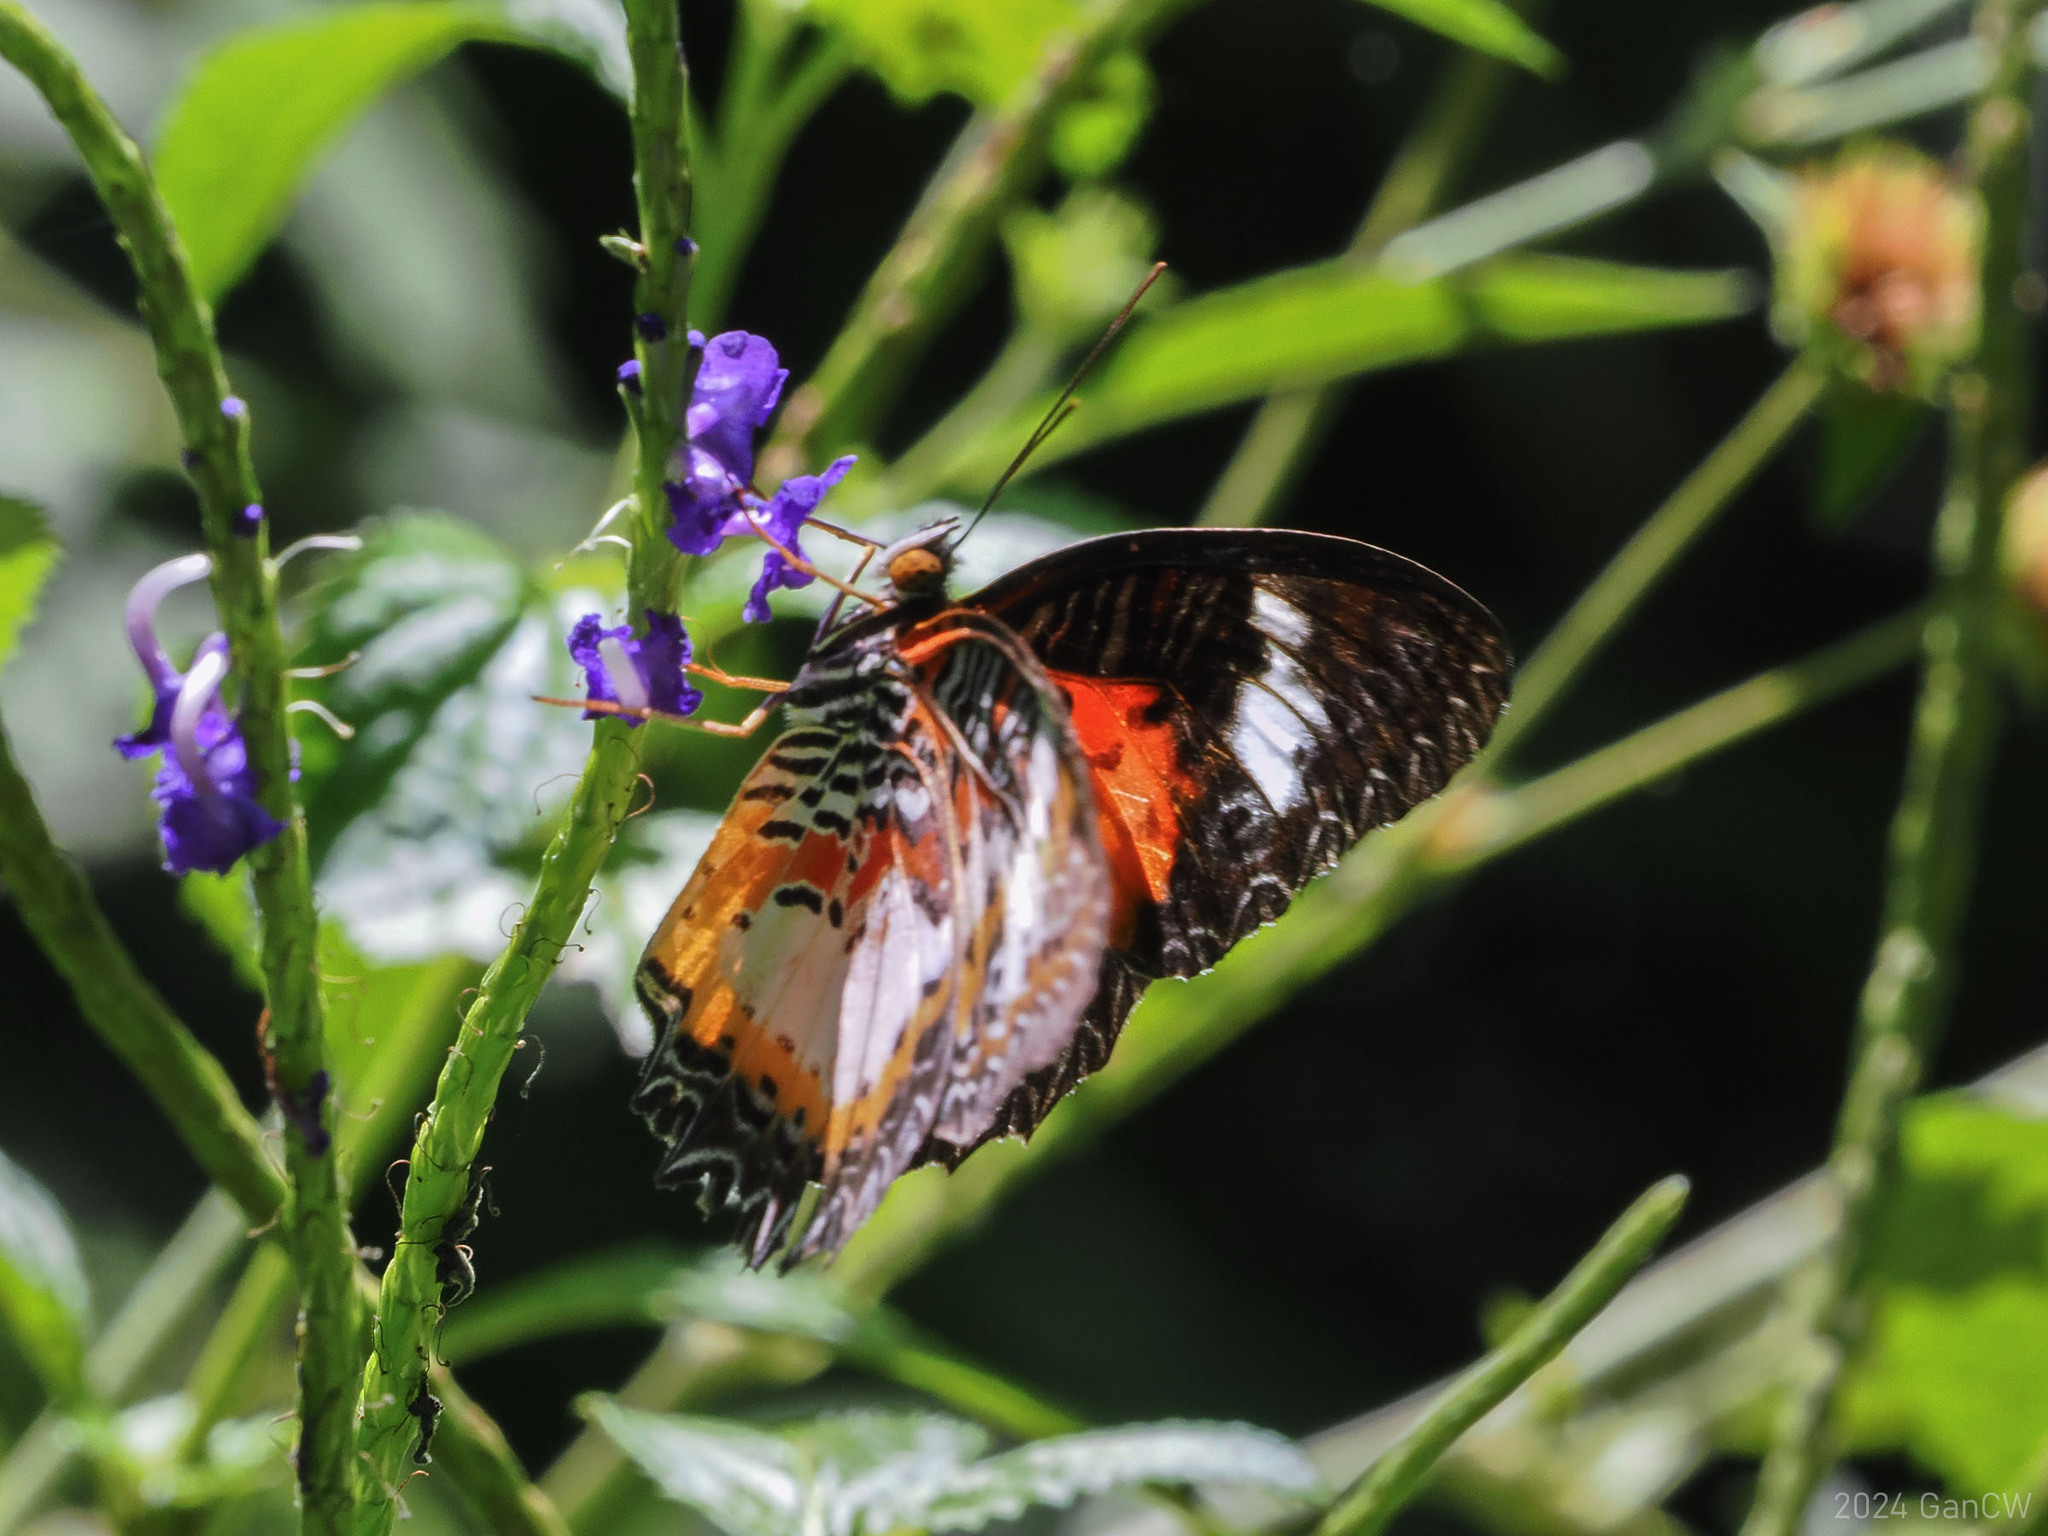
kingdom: Animalia
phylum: Arthropoda
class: Insecta
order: Lepidoptera
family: Nymphalidae
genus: Cethosia
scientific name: Cethosia luzonica
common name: Luzon lacewing
